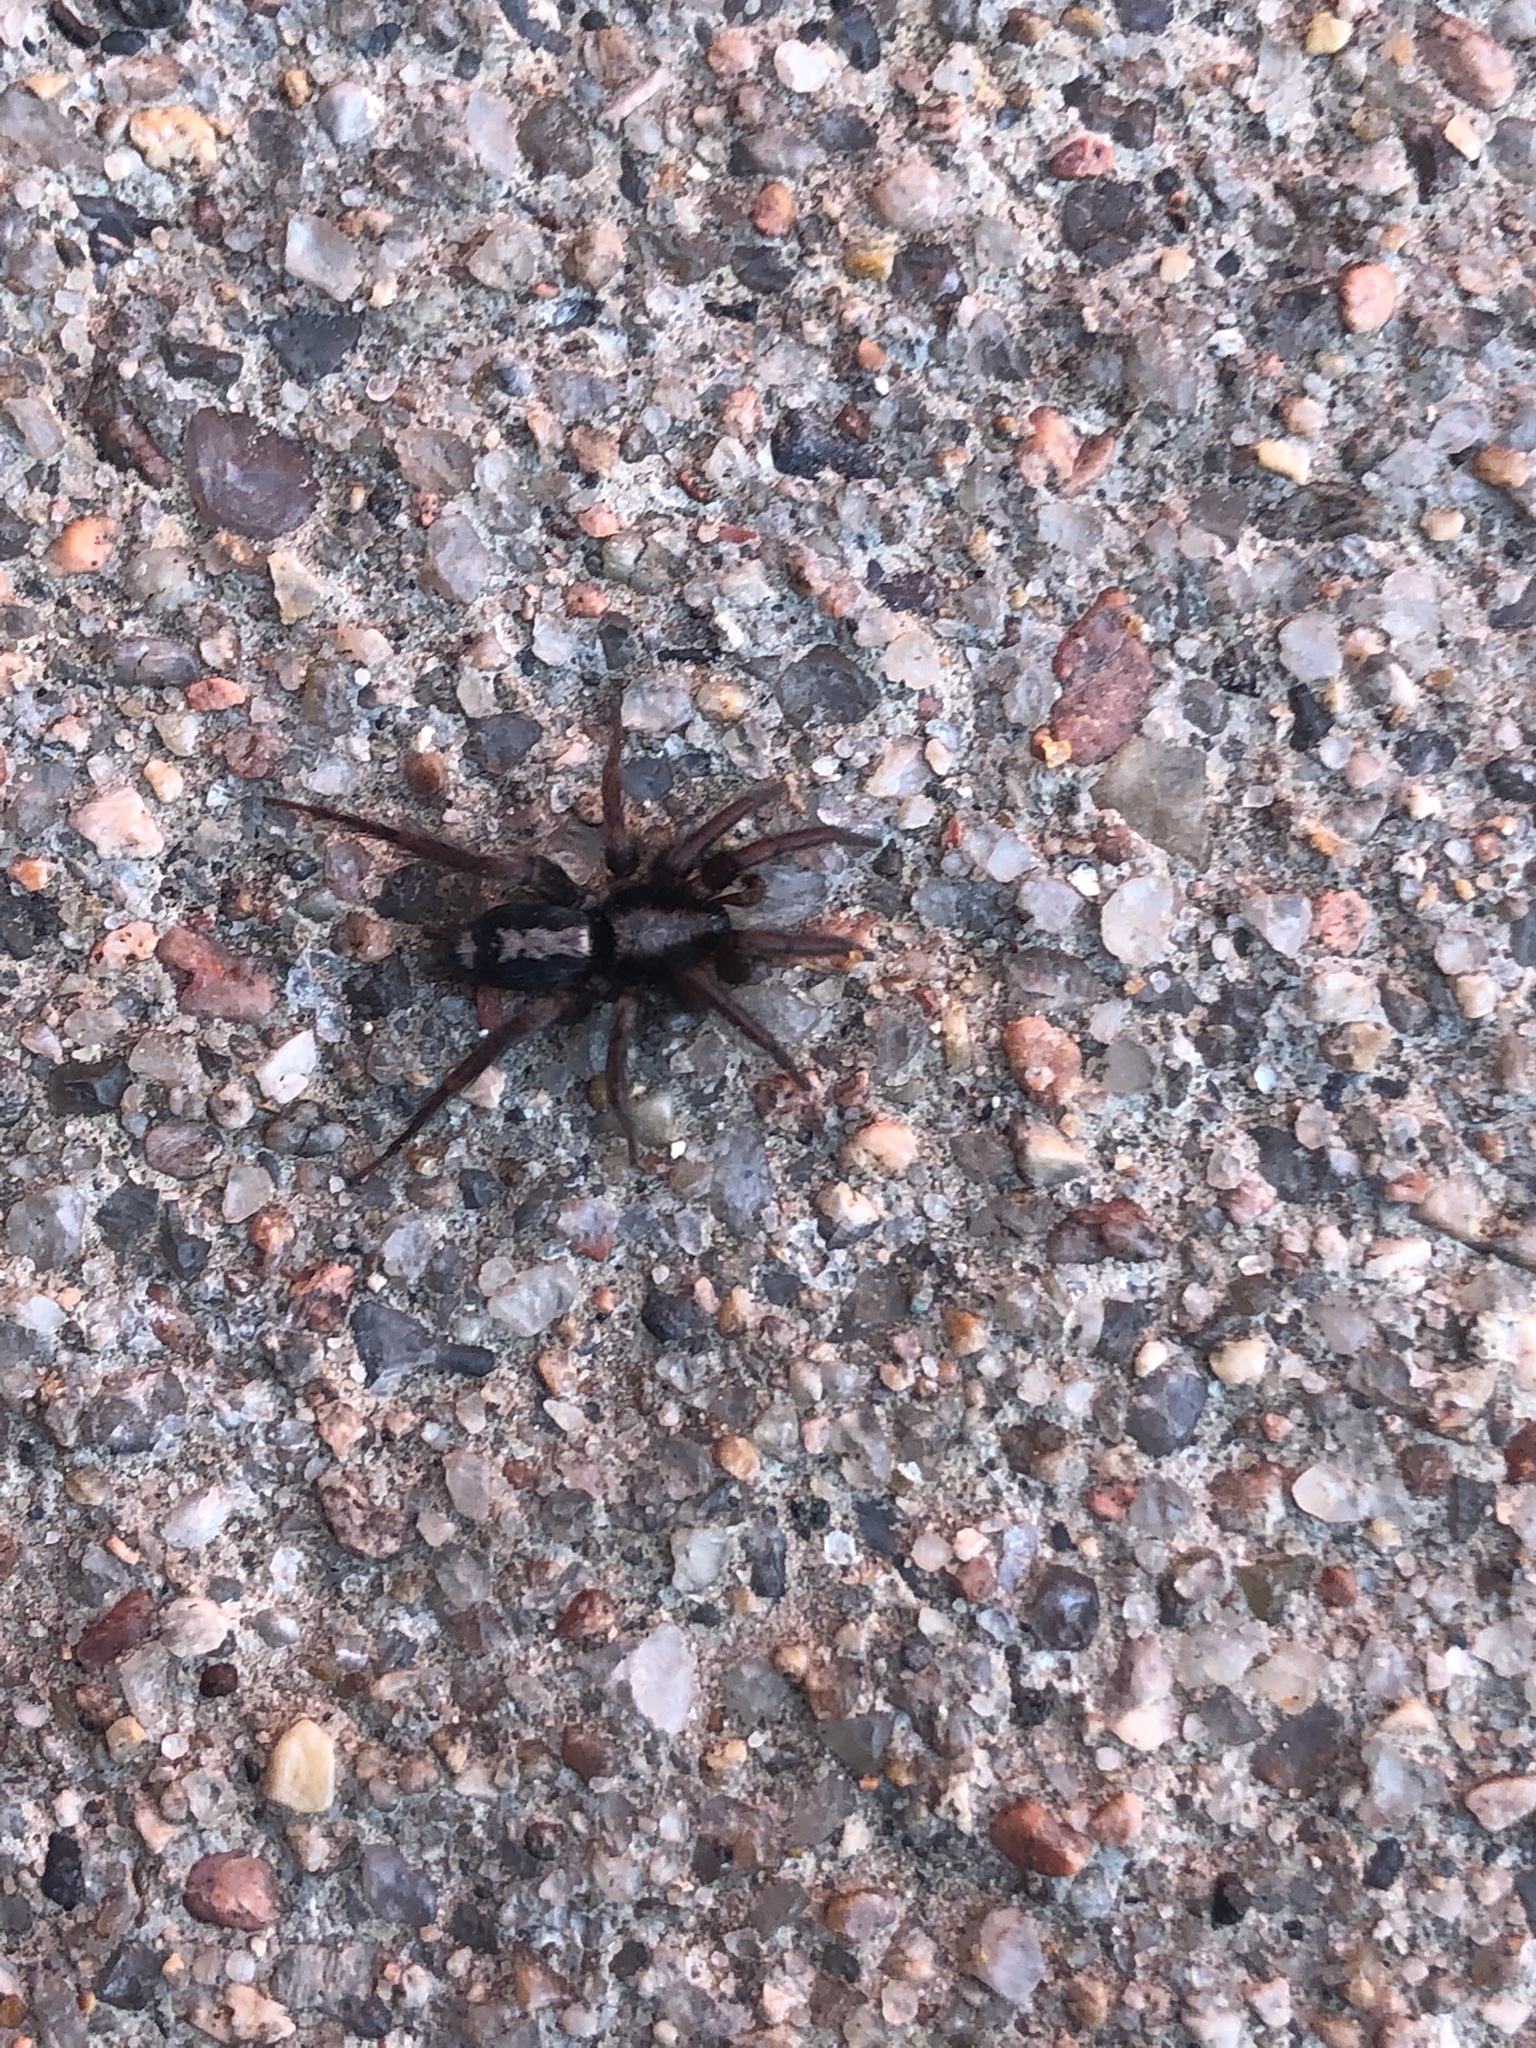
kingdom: Animalia
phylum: Arthropoda
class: Arachnida
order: Araneae
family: Gnaphosidae
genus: Herpyllus
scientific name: Herpyllus ecclesiasticus
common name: Eastern parson spider
